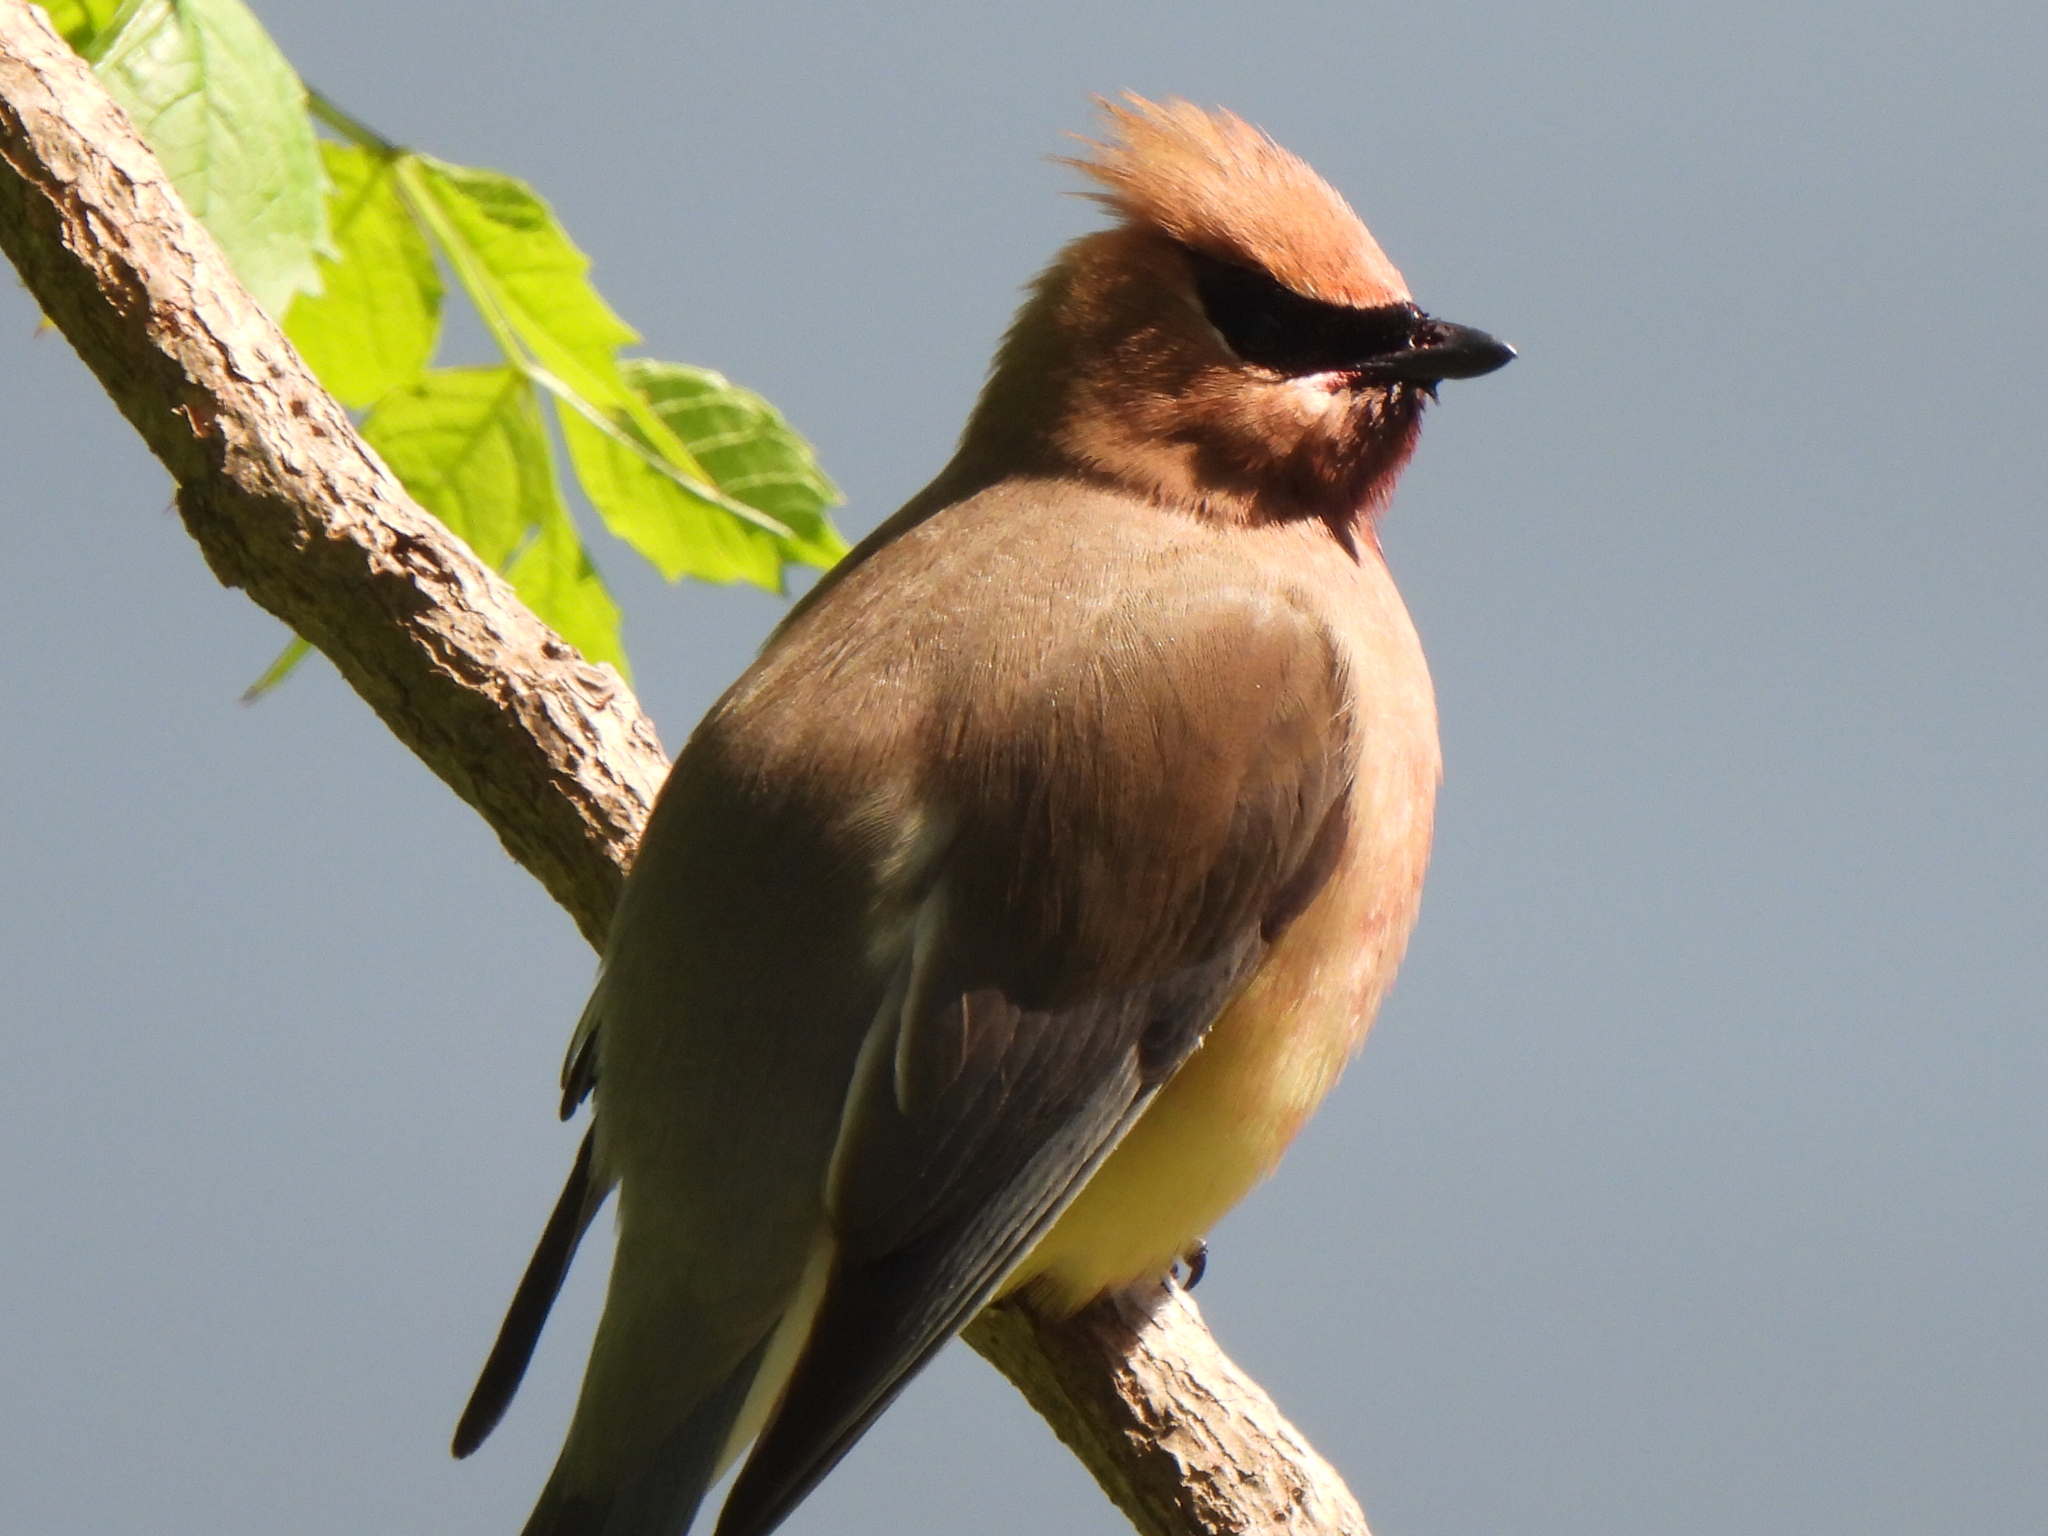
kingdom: Animalia
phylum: Chordata
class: Aves
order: Passeriformes
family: Bombycillidae
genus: Bombycilla
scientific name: Bombycilla cedrorum
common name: Cedar waxwing
